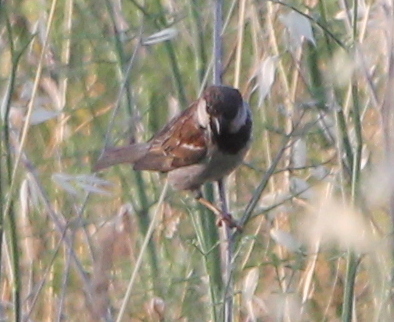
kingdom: Animalia
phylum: Chordata
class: Aves
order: Passeriformes
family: Passeridae
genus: Passer
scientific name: Passer domesticus
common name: House sparrow
